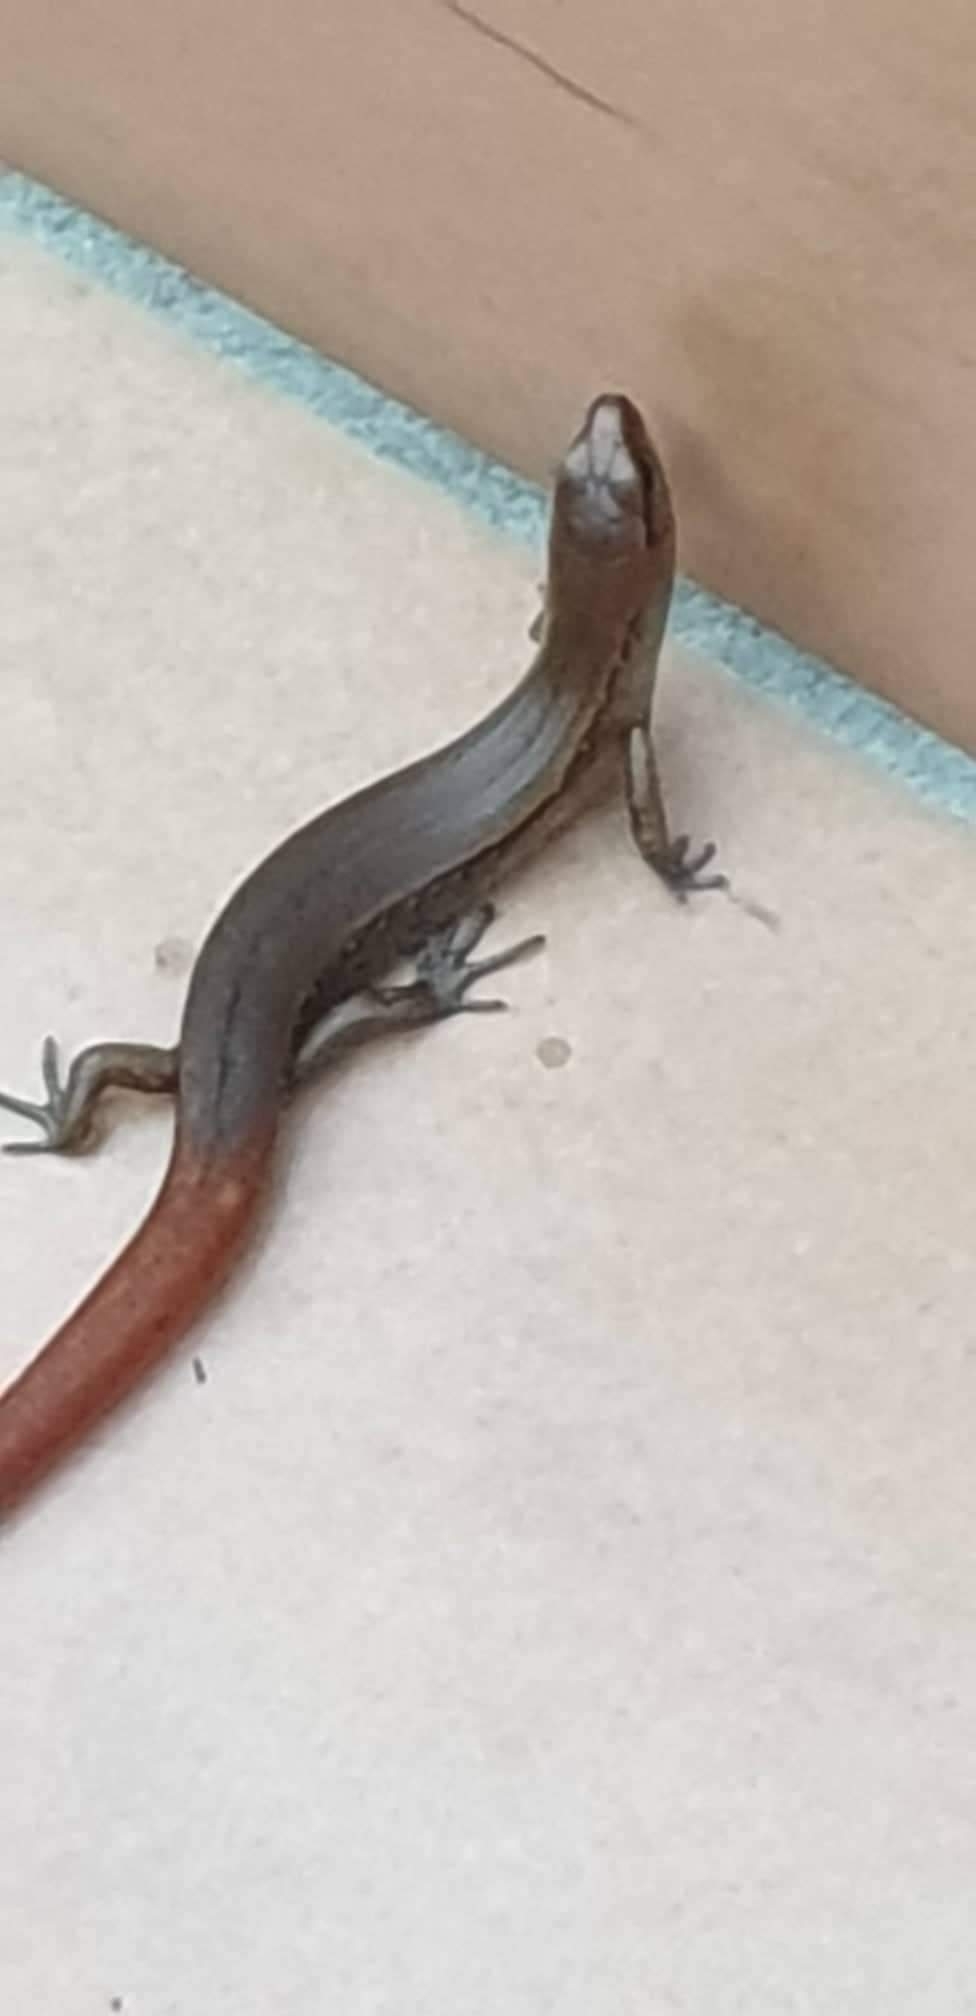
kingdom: Animalia
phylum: Chordata
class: Squamata
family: Scincidae
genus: Oligosoma
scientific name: Oligosoma aeneum
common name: Copper skink
